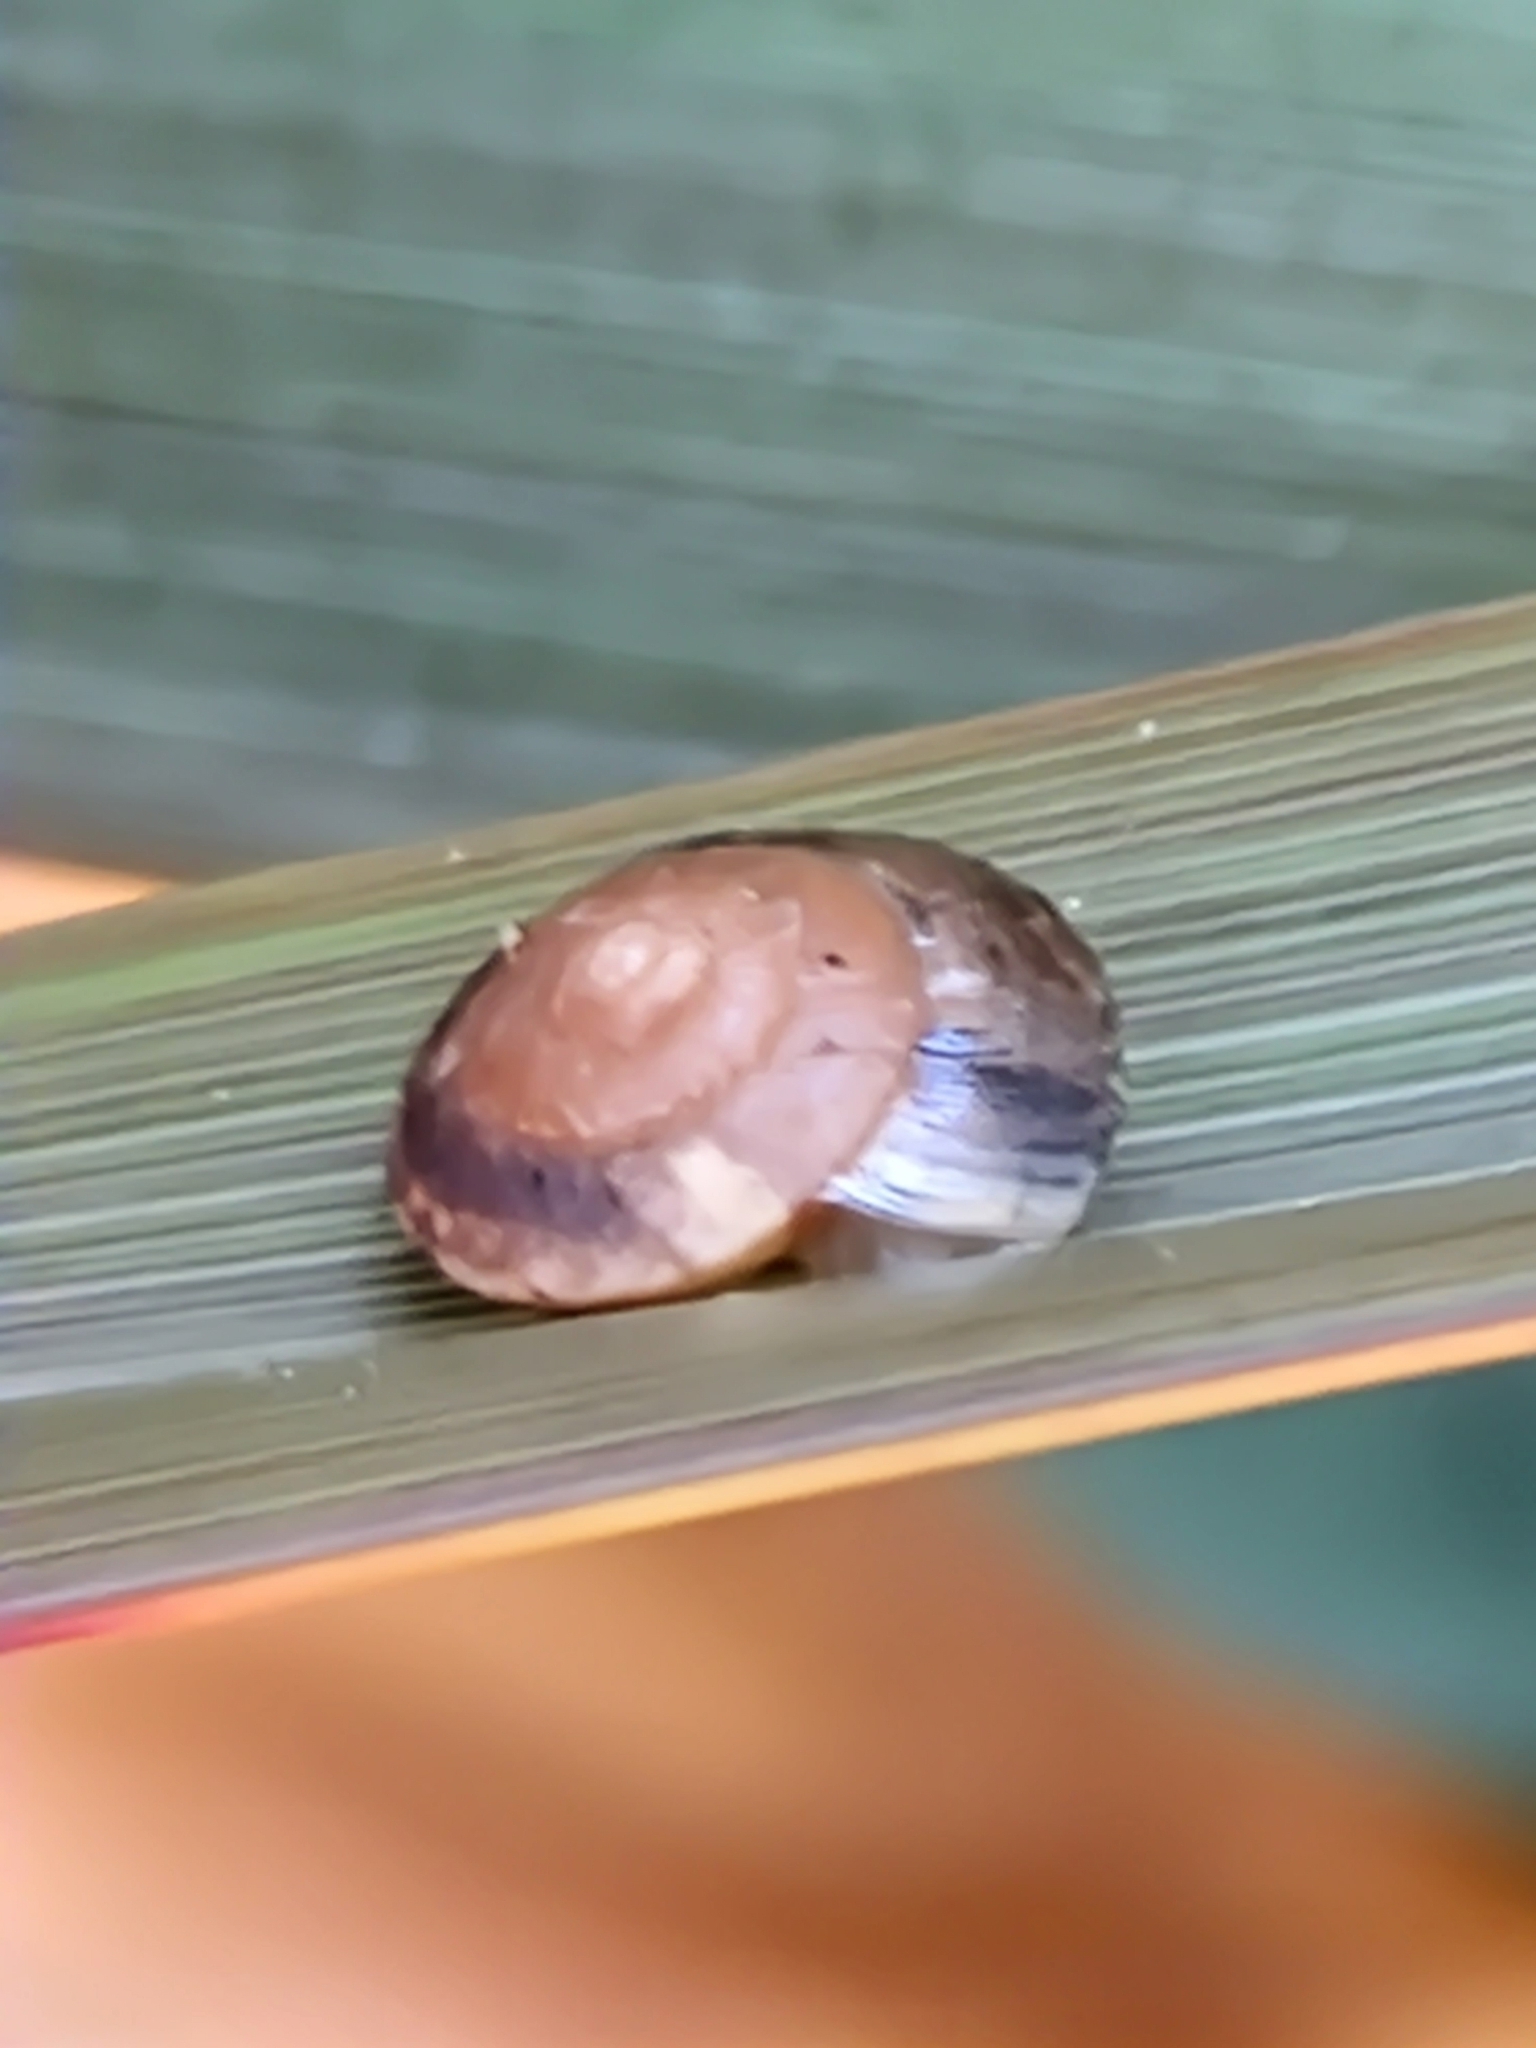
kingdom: Animalia
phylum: Mollusca
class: Gastropoda
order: Stylommatophora
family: Hygromiidae
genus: Hygromia
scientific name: Hygromia cinctella
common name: Girdled snail
